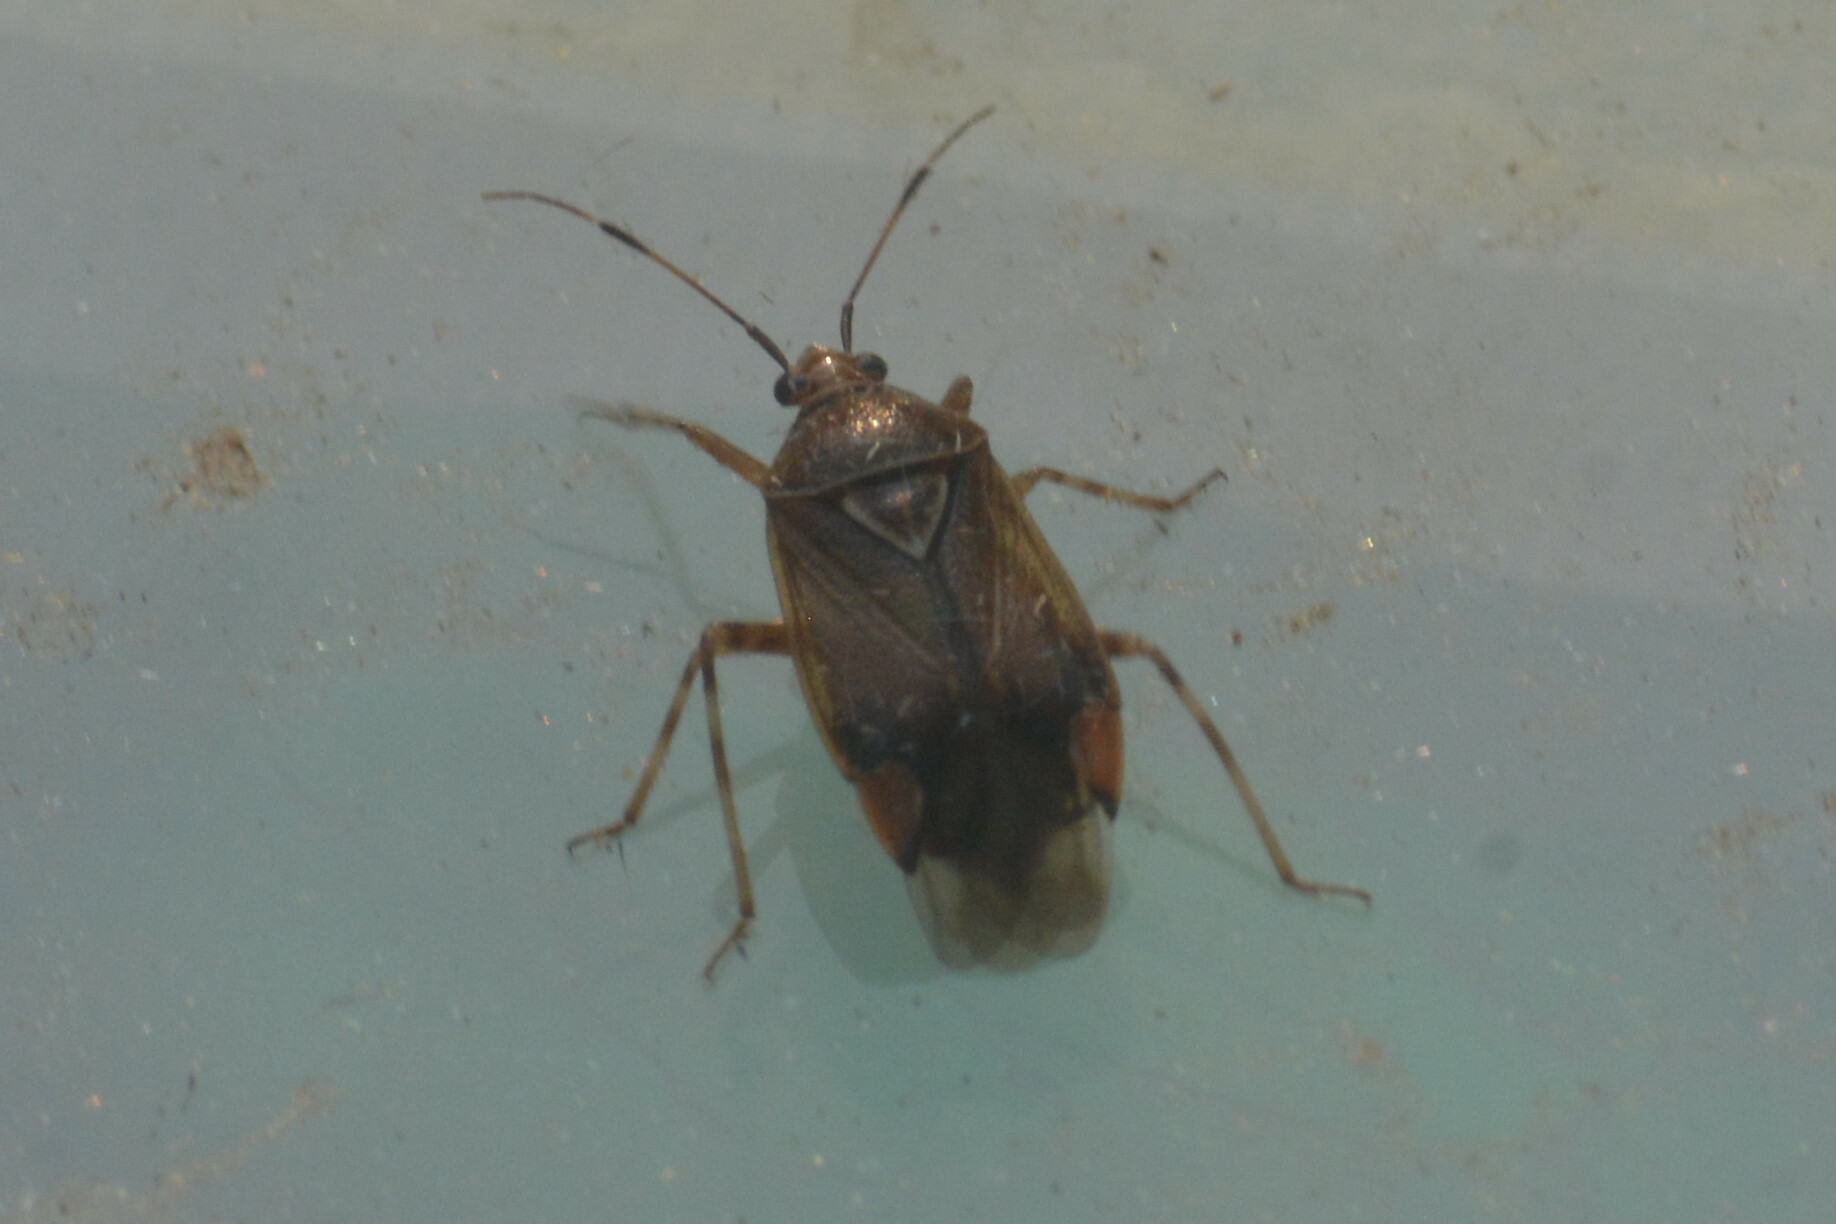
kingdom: Animalia
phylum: Arthropoda
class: Insecta
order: Hemiptera
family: Miridae
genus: Deraeocoris
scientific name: Deraeocoris flavilinea
